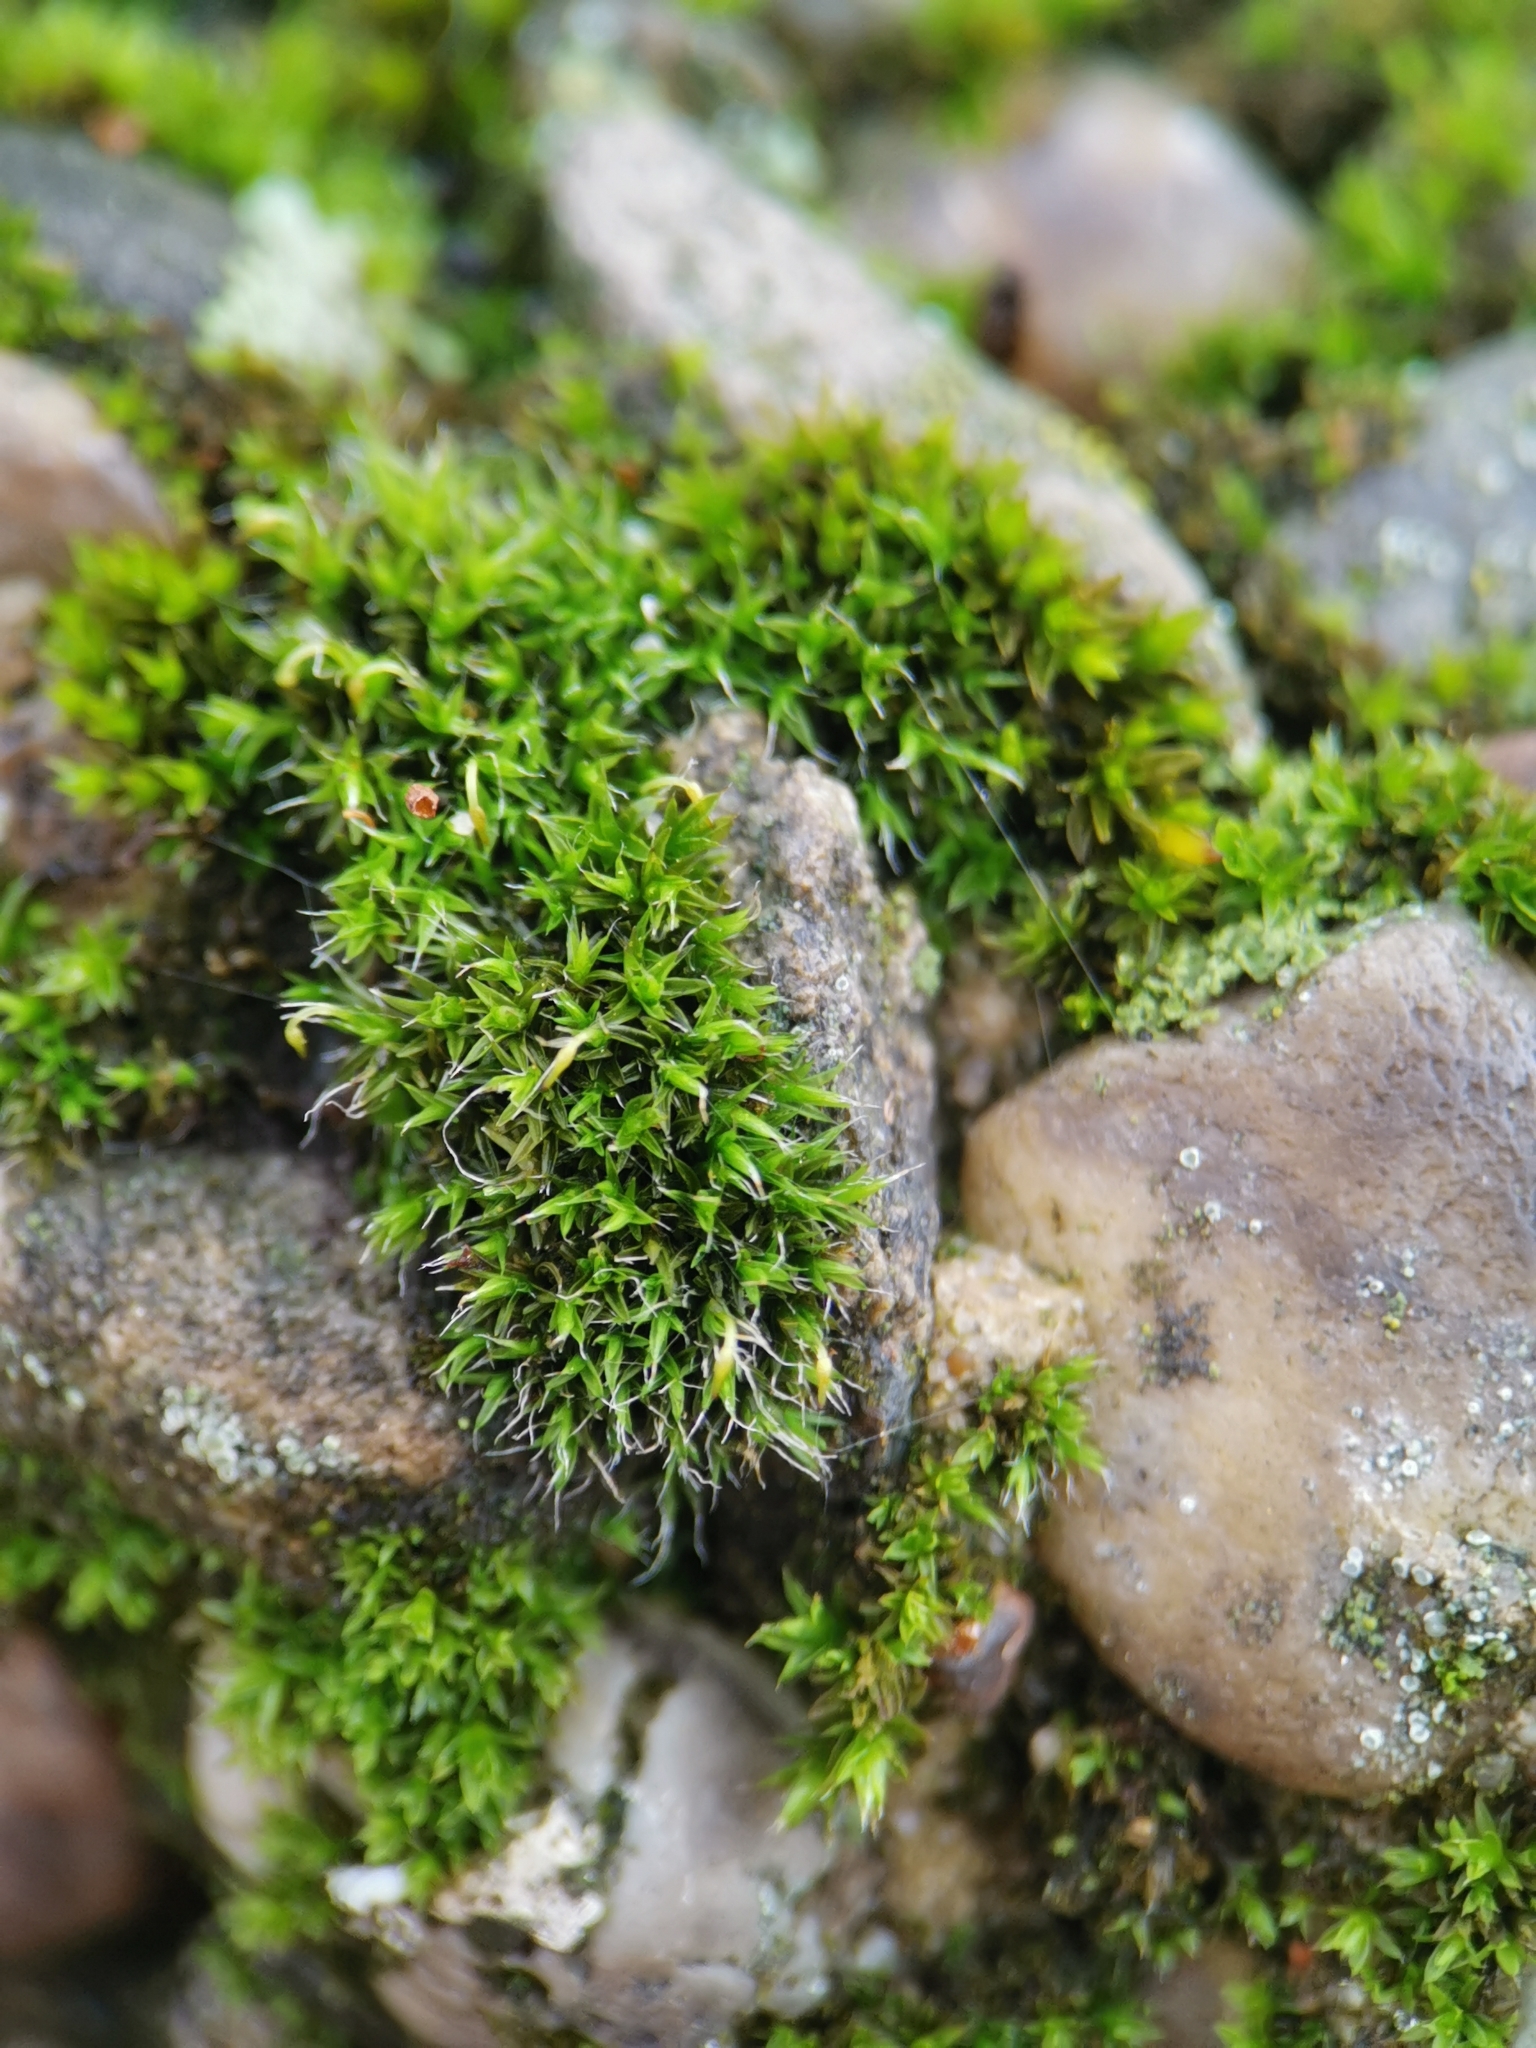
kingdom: Plantae
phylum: Bryophyta
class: Bryopsida
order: Grimmiales
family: Grimmiaceae
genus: Grimmia
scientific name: Grimmia pulvinata
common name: Grey-cushioned grimmia
